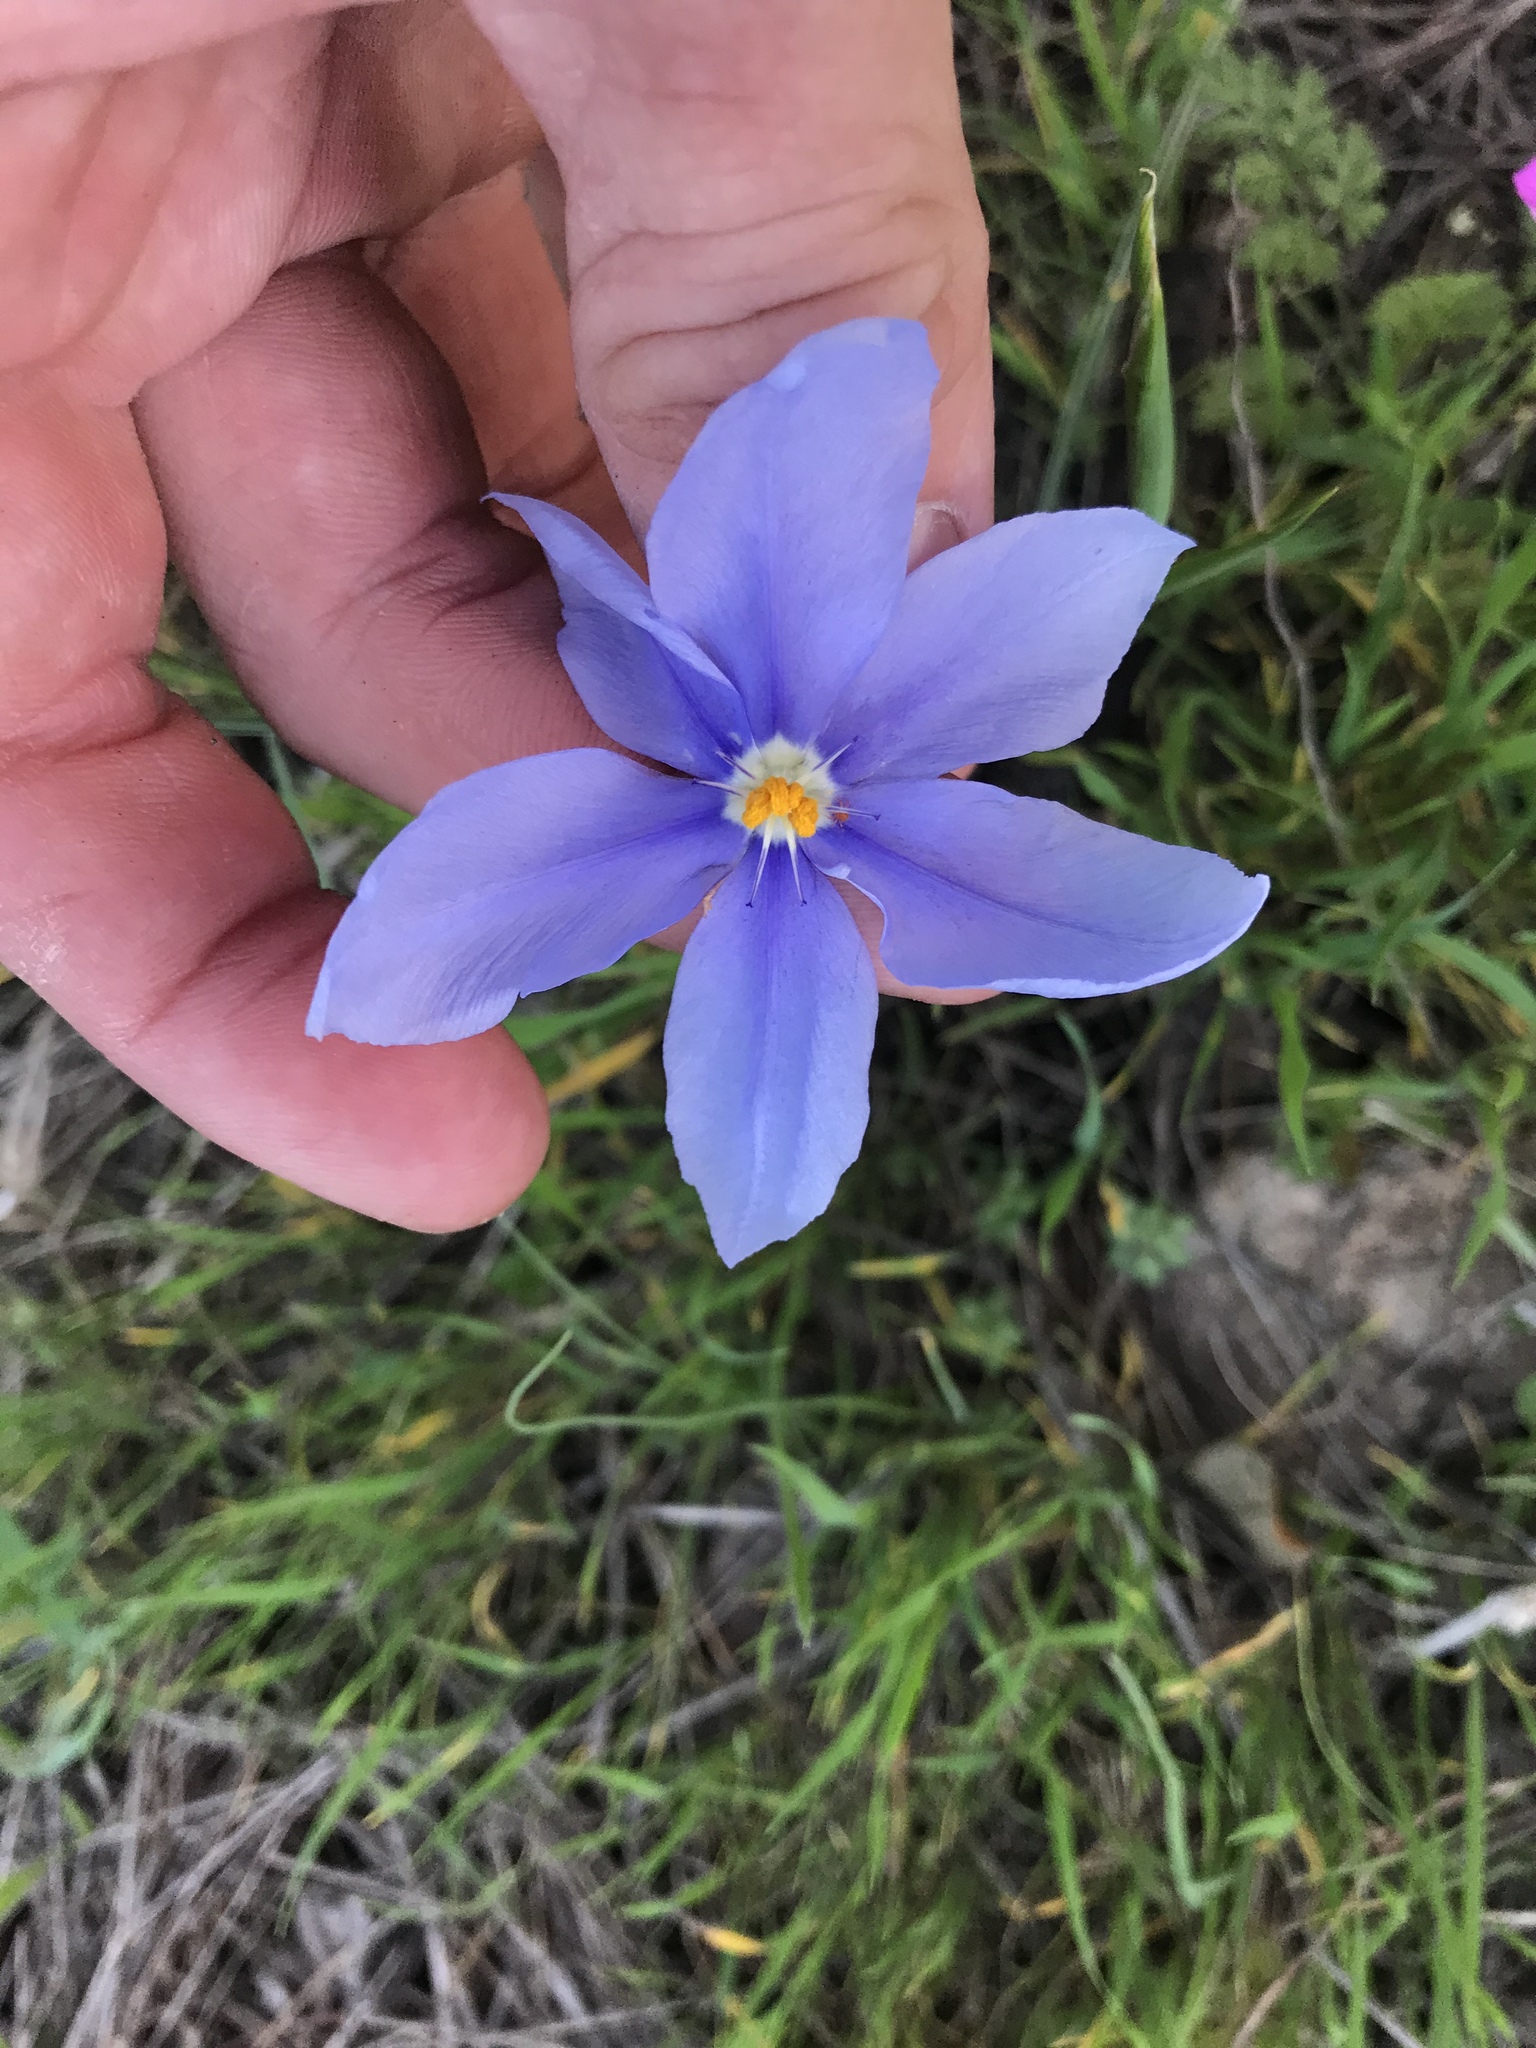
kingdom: Plantae
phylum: Tracheophyta
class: Liliopsida
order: Asparagales
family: Iridaceae
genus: Nemastylis
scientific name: Nemastylis geminiflora
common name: Prairie celestial
